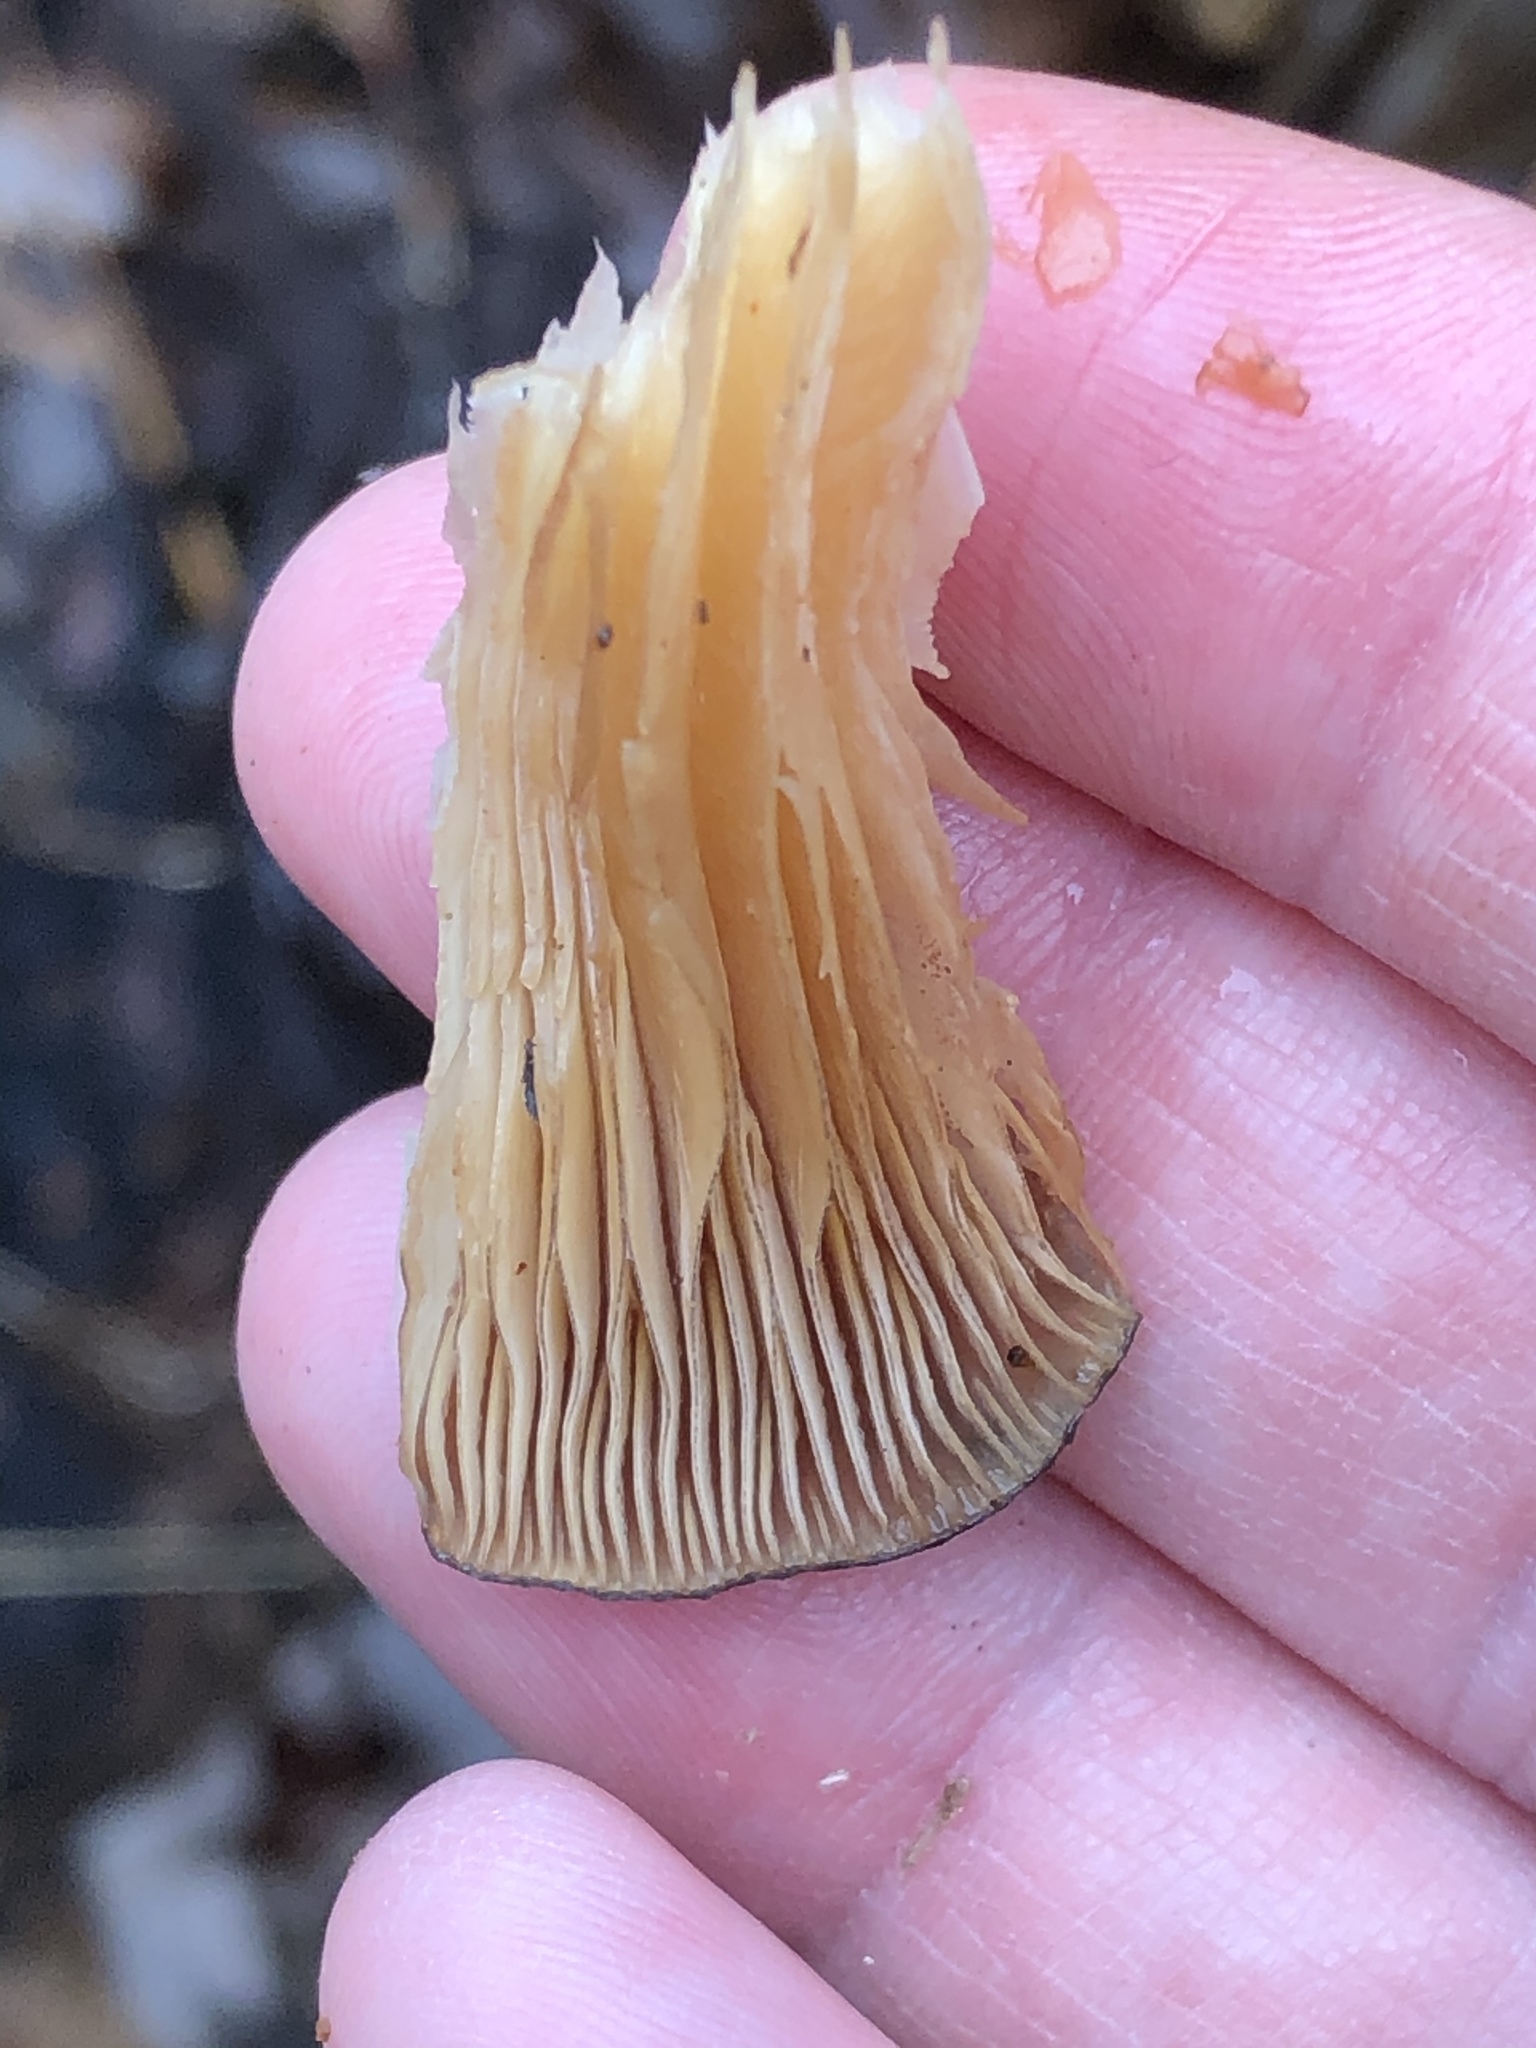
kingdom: Fungi
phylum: Basidiomycota
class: Agaricomycetes
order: Agaricales
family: Sarcomyxaceae
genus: Sarcomyxa
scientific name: Sarcomyxa serotina
